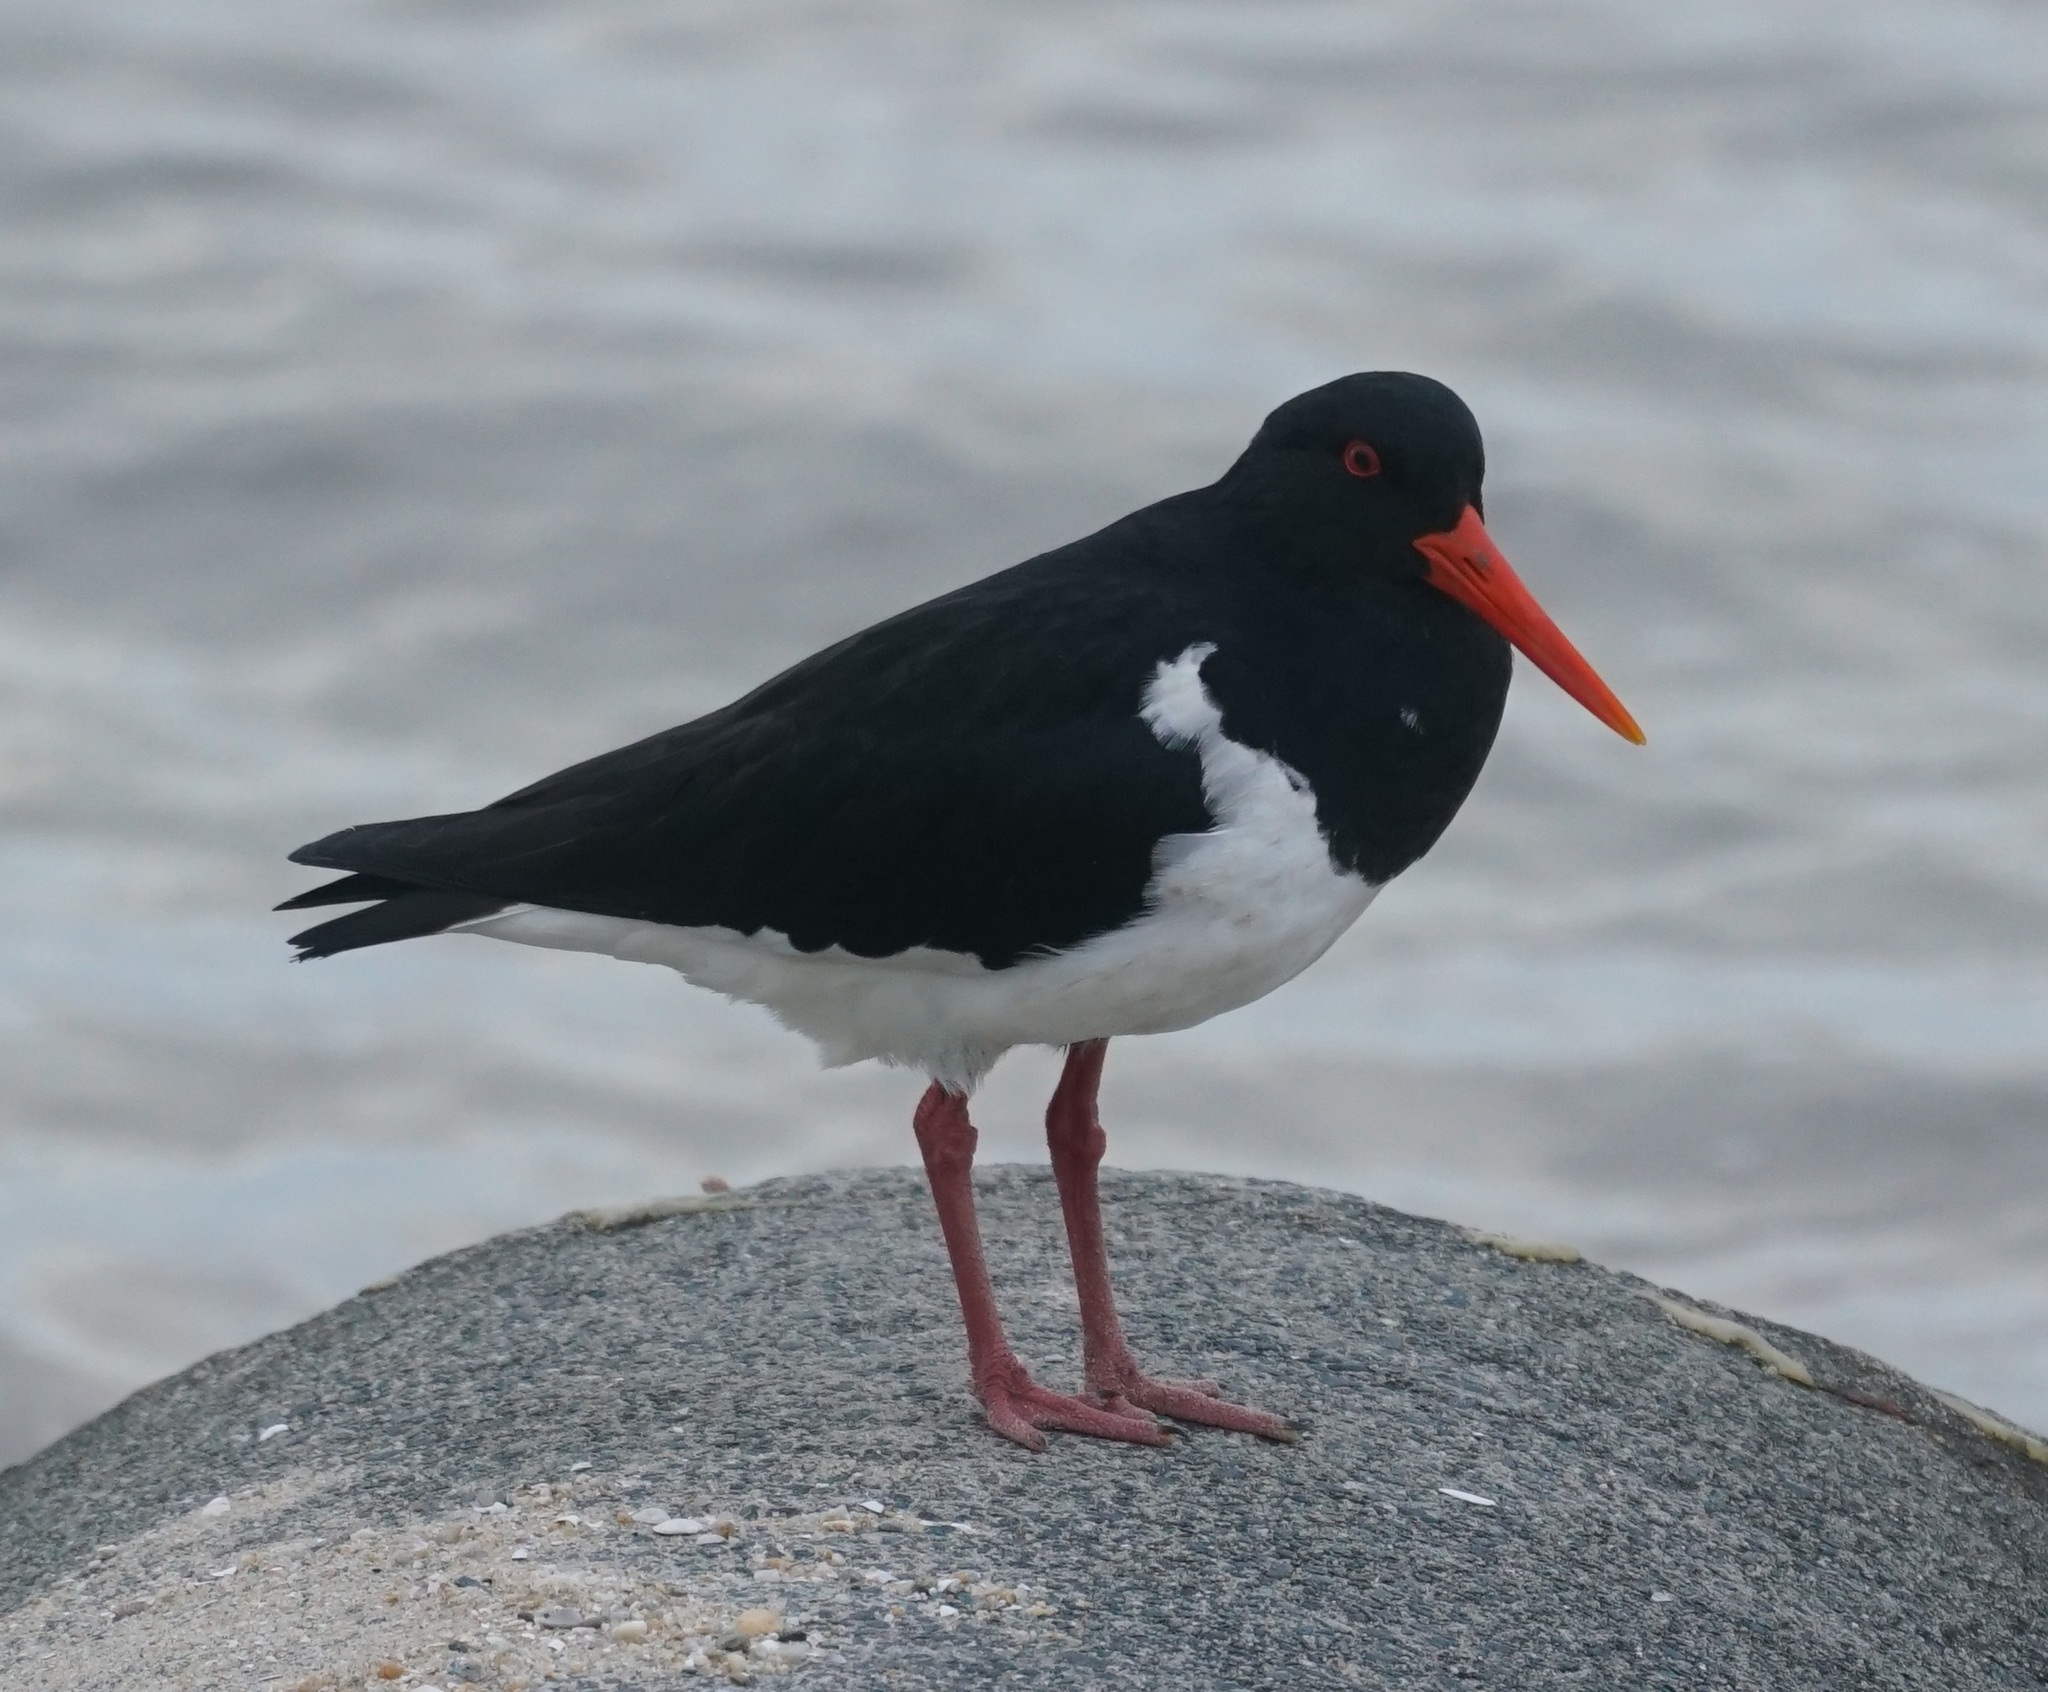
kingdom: Animalia
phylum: Chordata
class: Aves
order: Charadriiformes
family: Haematopodidae
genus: Haematopus
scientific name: Haematopus longirostris
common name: Pied oystercatcher
